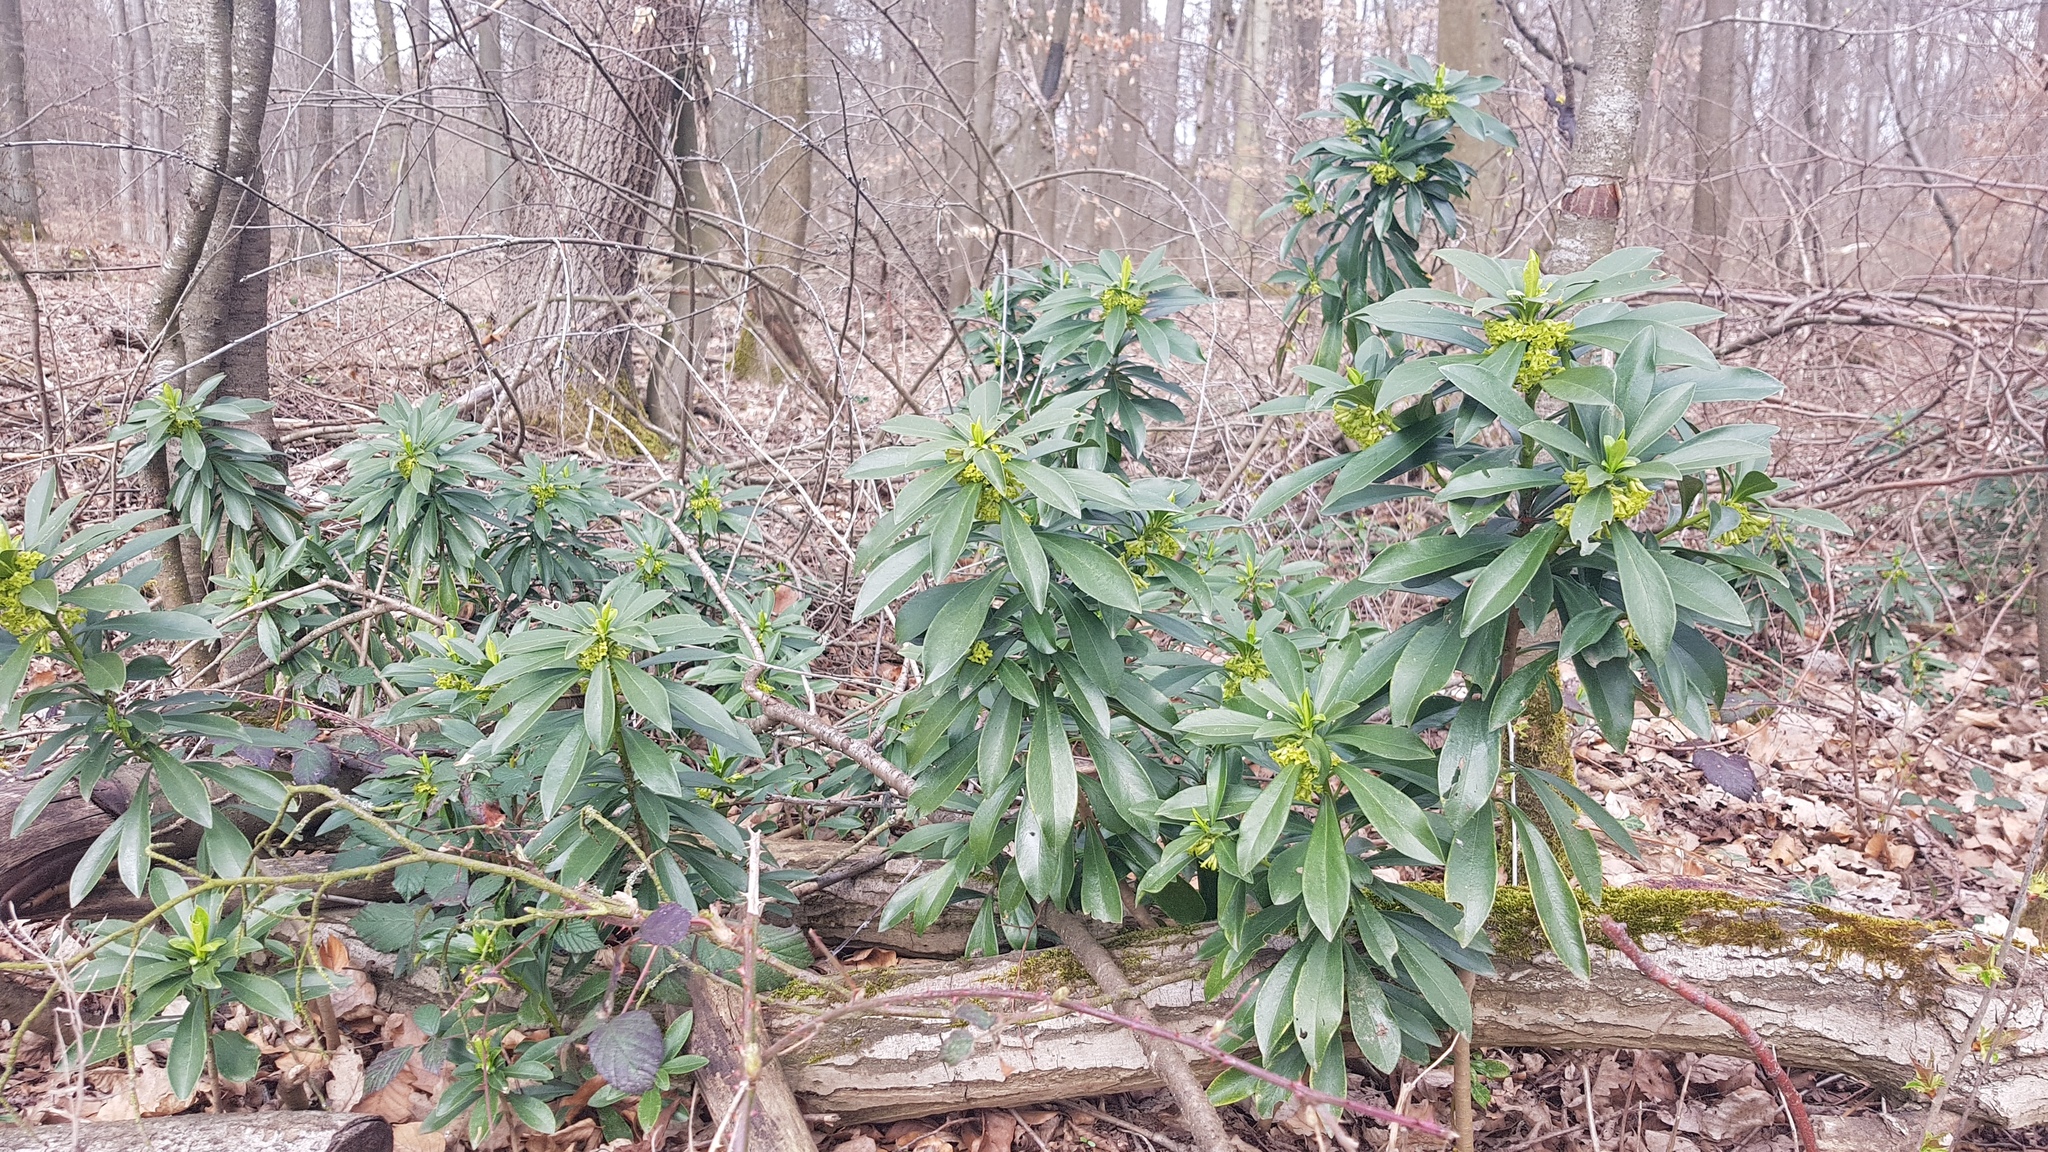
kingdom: Plantae
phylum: Tracheophyta
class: Magnoliopsida
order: Malvales
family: Thymelaeaceae
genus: Daphne
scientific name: Daphne laureola
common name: Spurge-laurel
